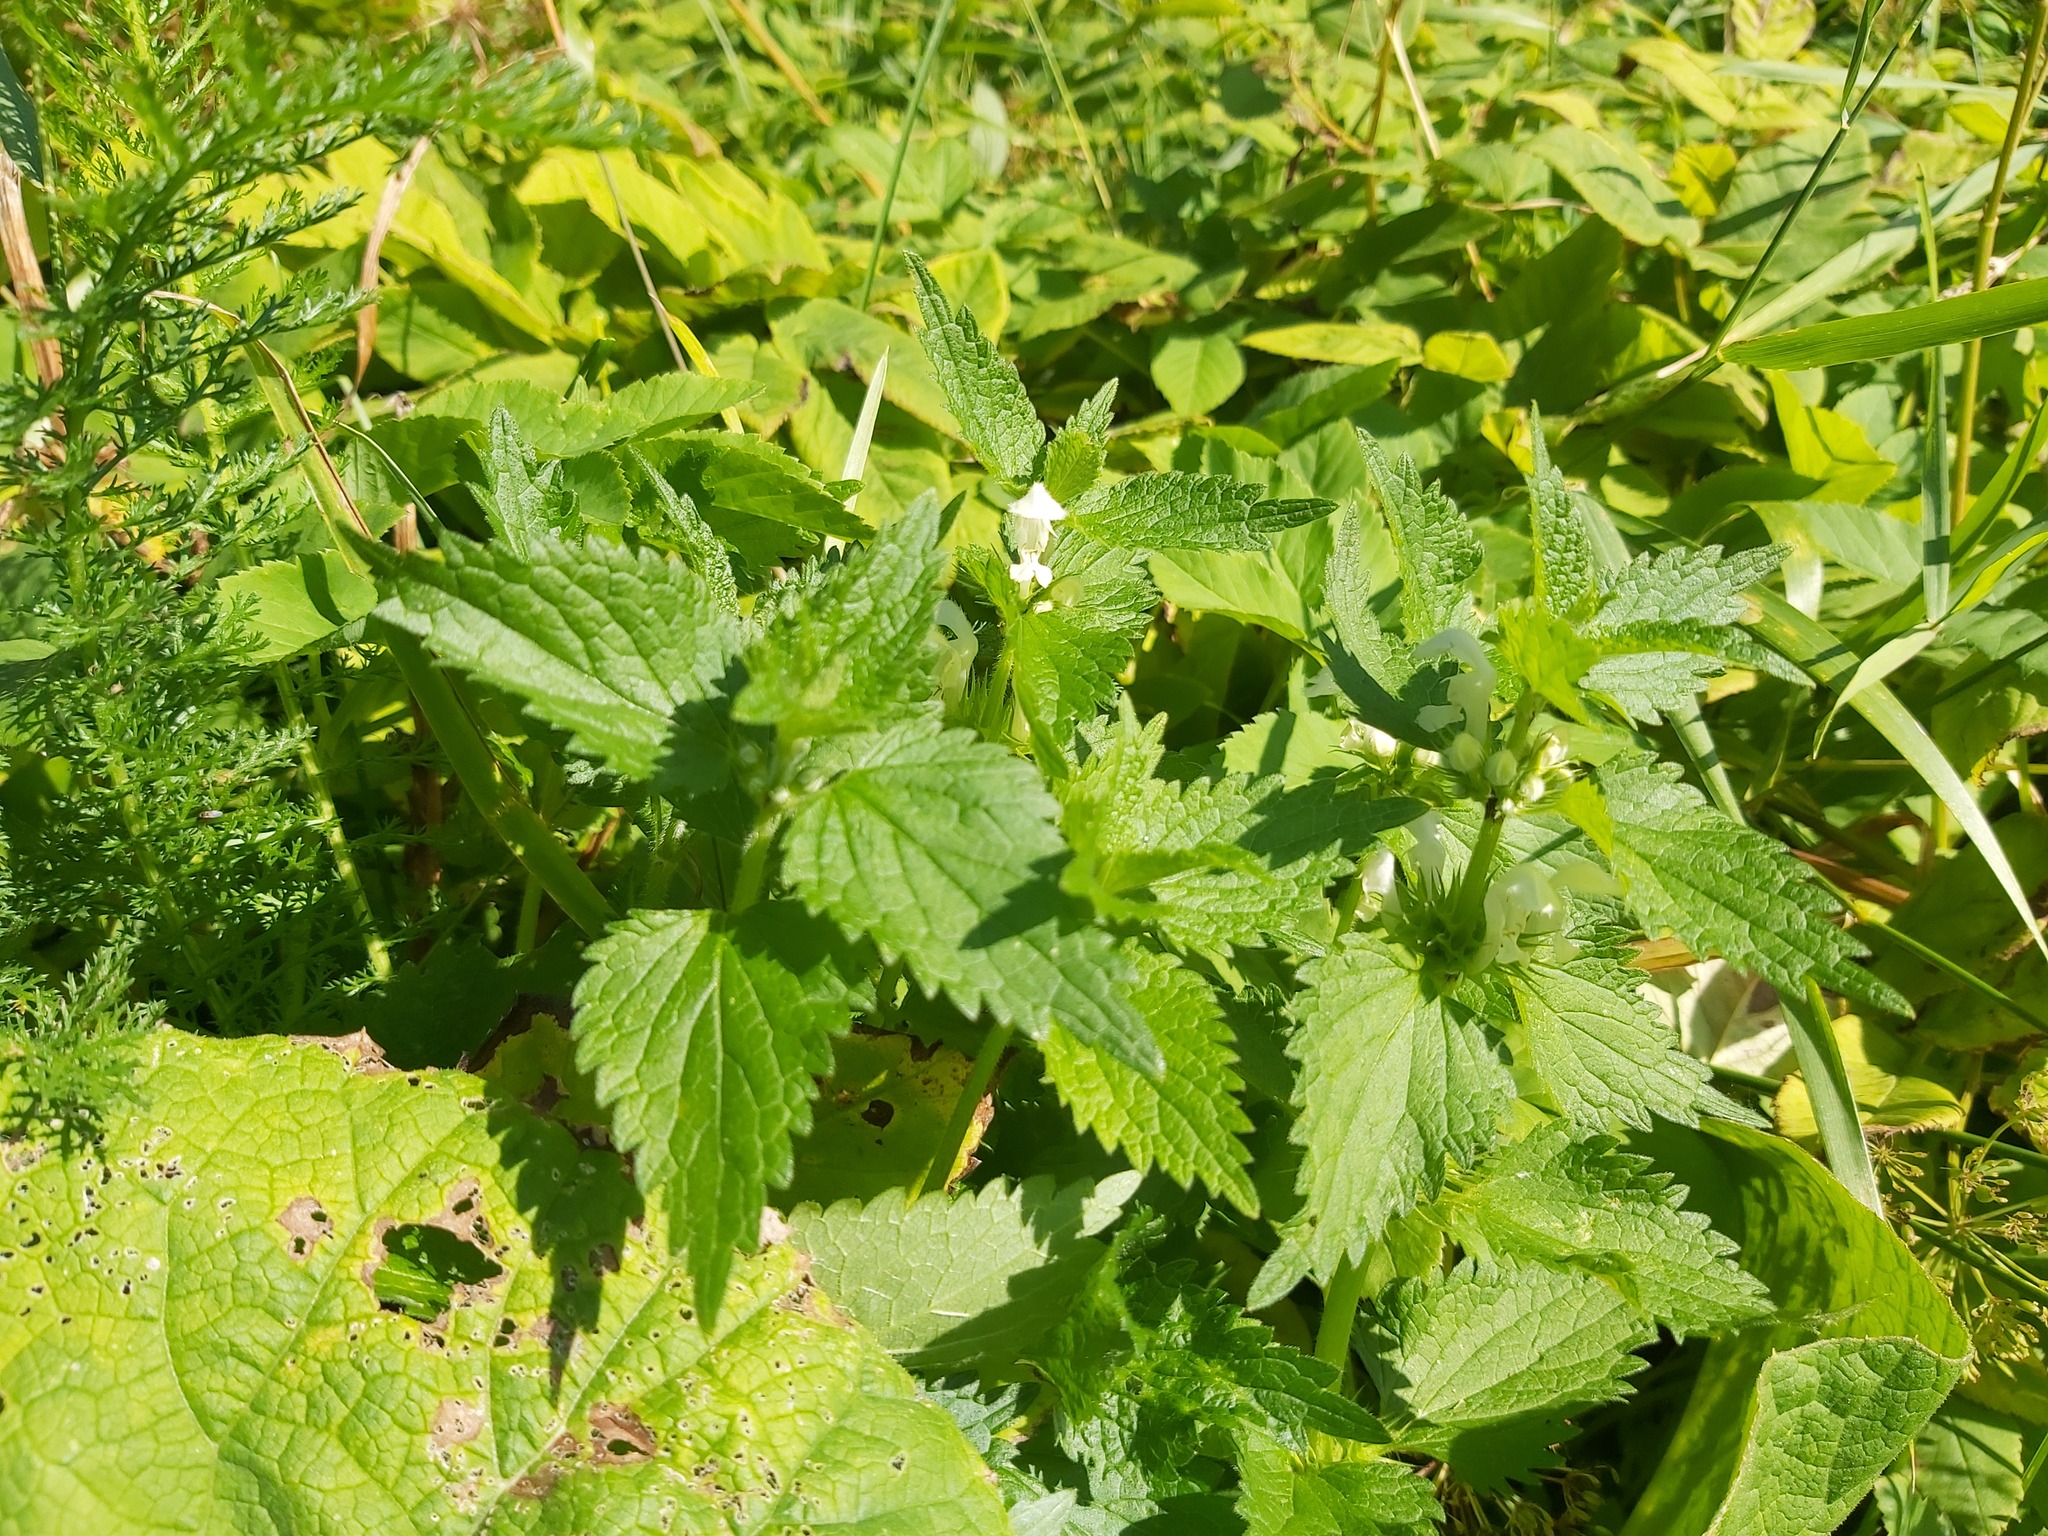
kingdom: Plantae
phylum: Tracheophyta
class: Magnoliopsida
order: Lamiales
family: Lamiaceae
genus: Lamium
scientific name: Lamium album
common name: White dead-nettle
